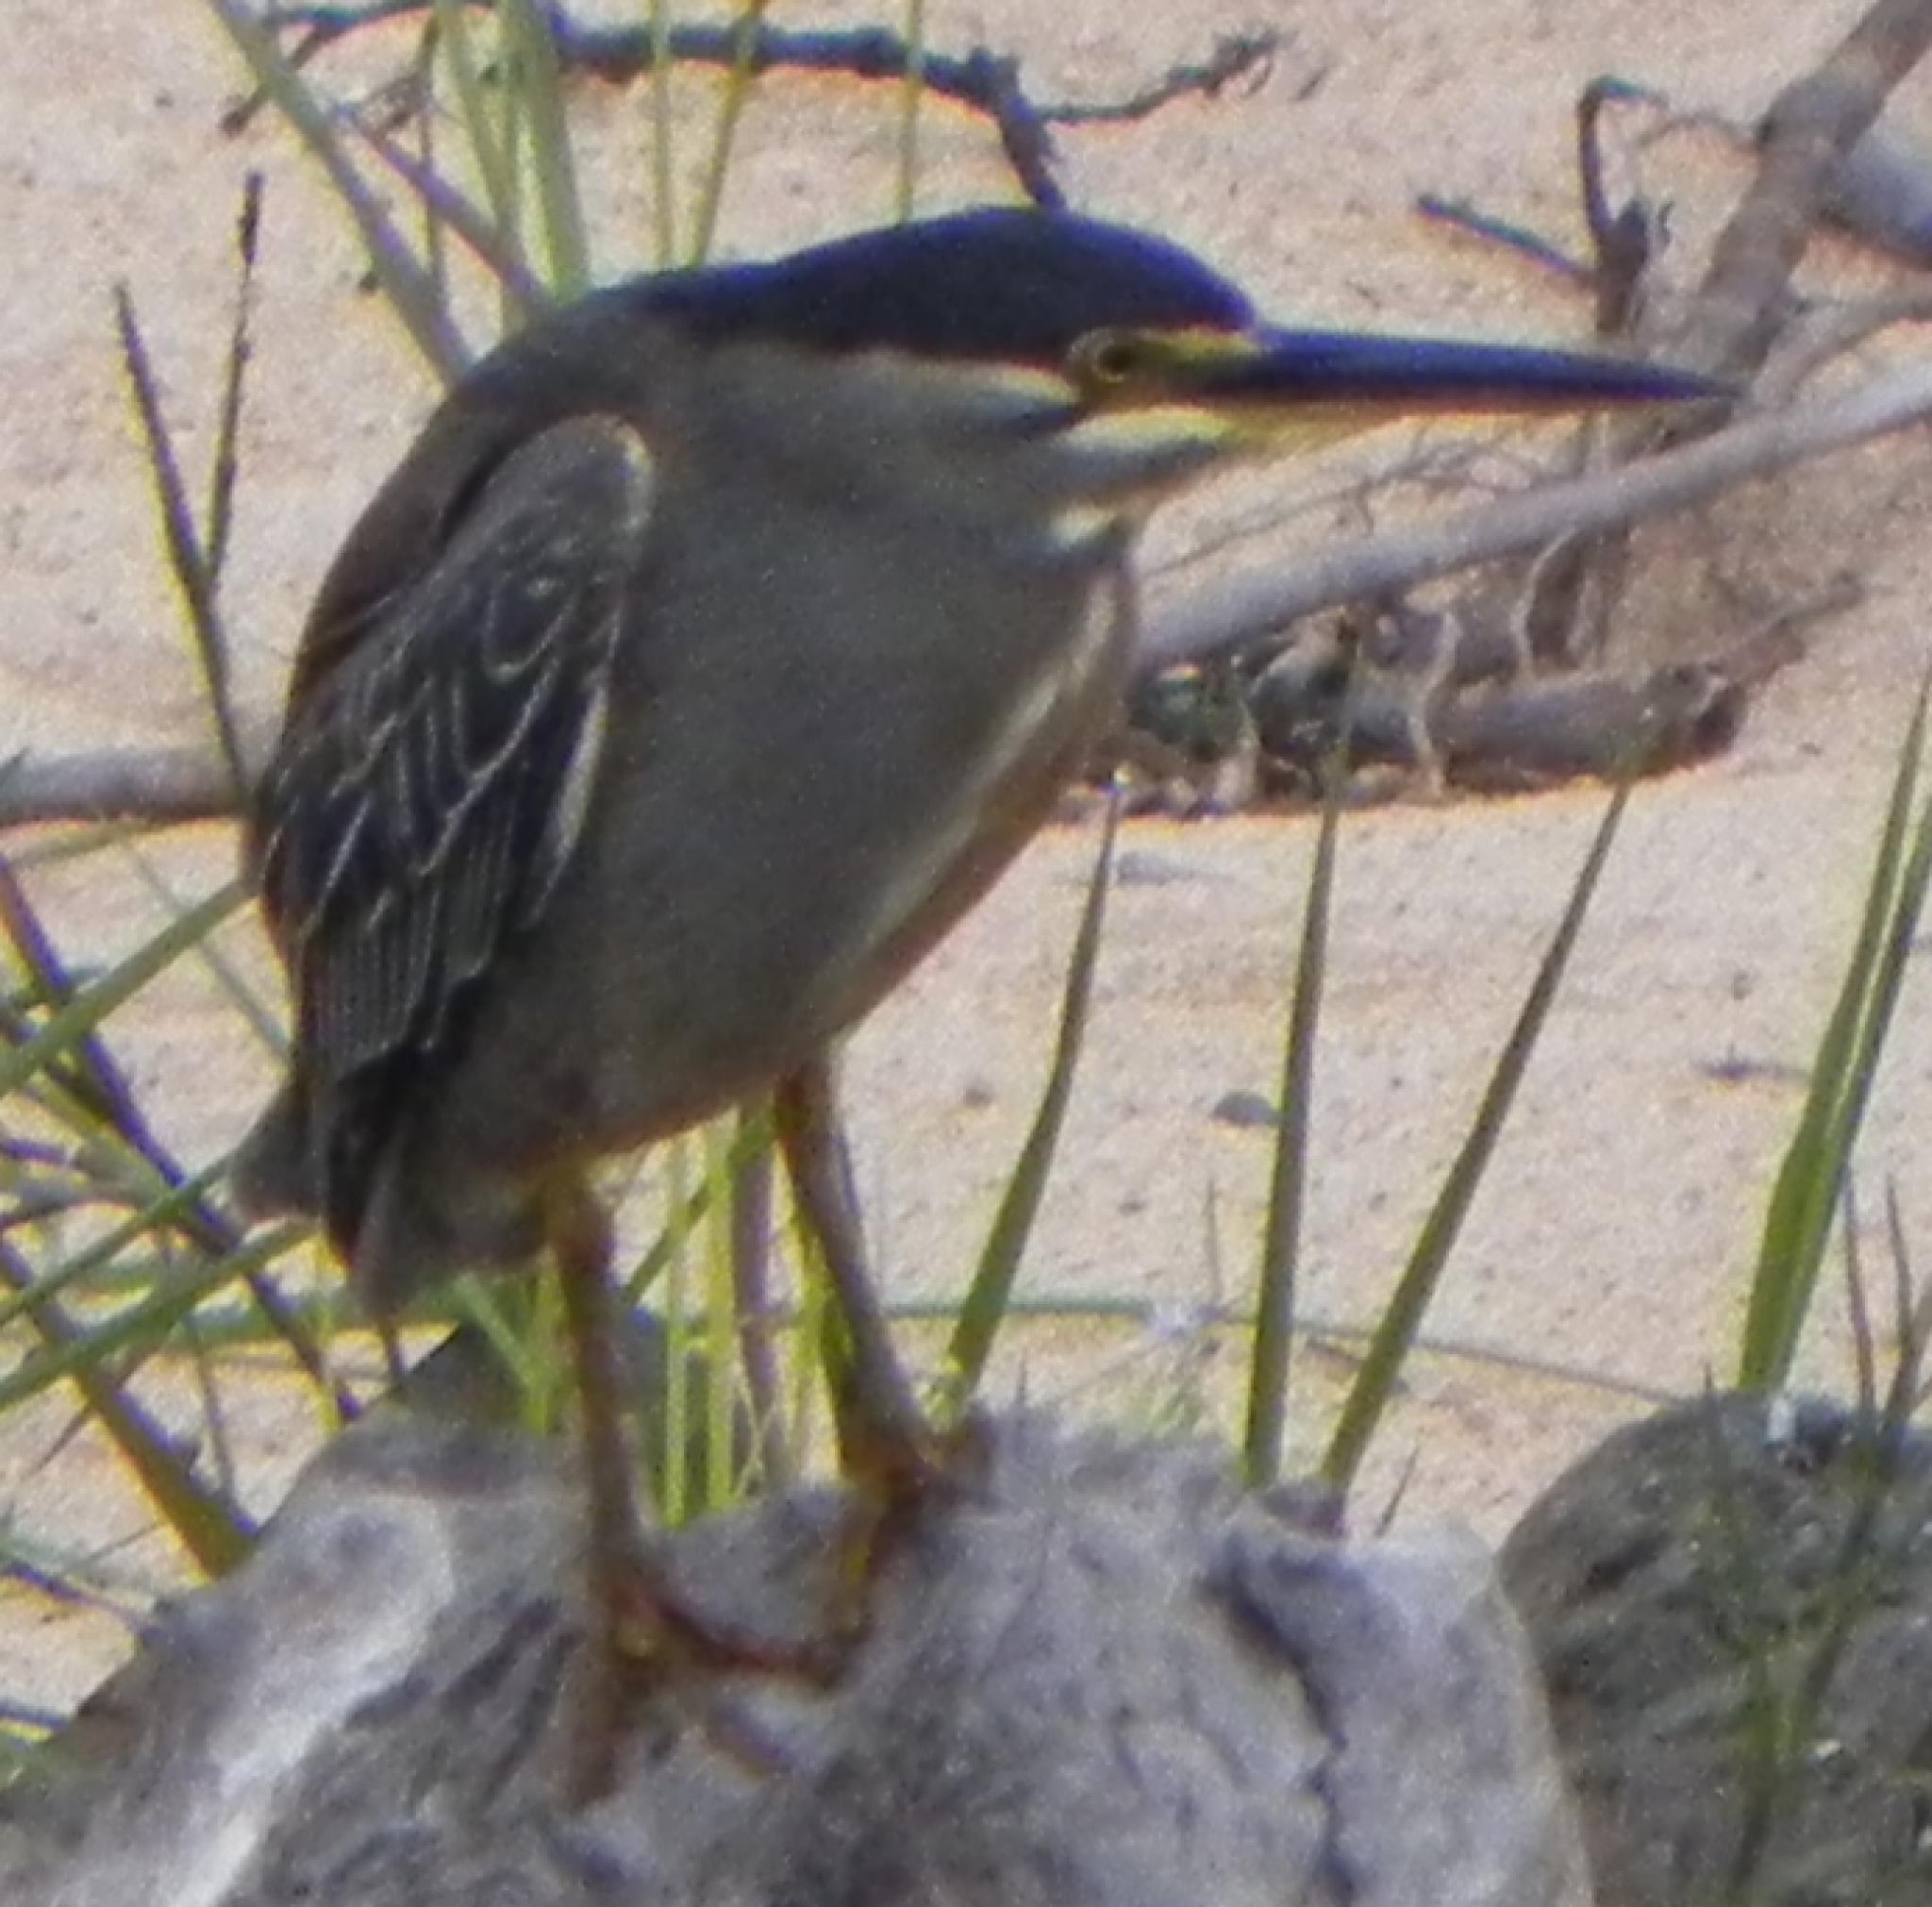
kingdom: Animalia
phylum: Chordata
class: Aves
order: Pelecaniformes
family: Ardeidae
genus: Butorides
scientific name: Butorides striata
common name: Striated heron
